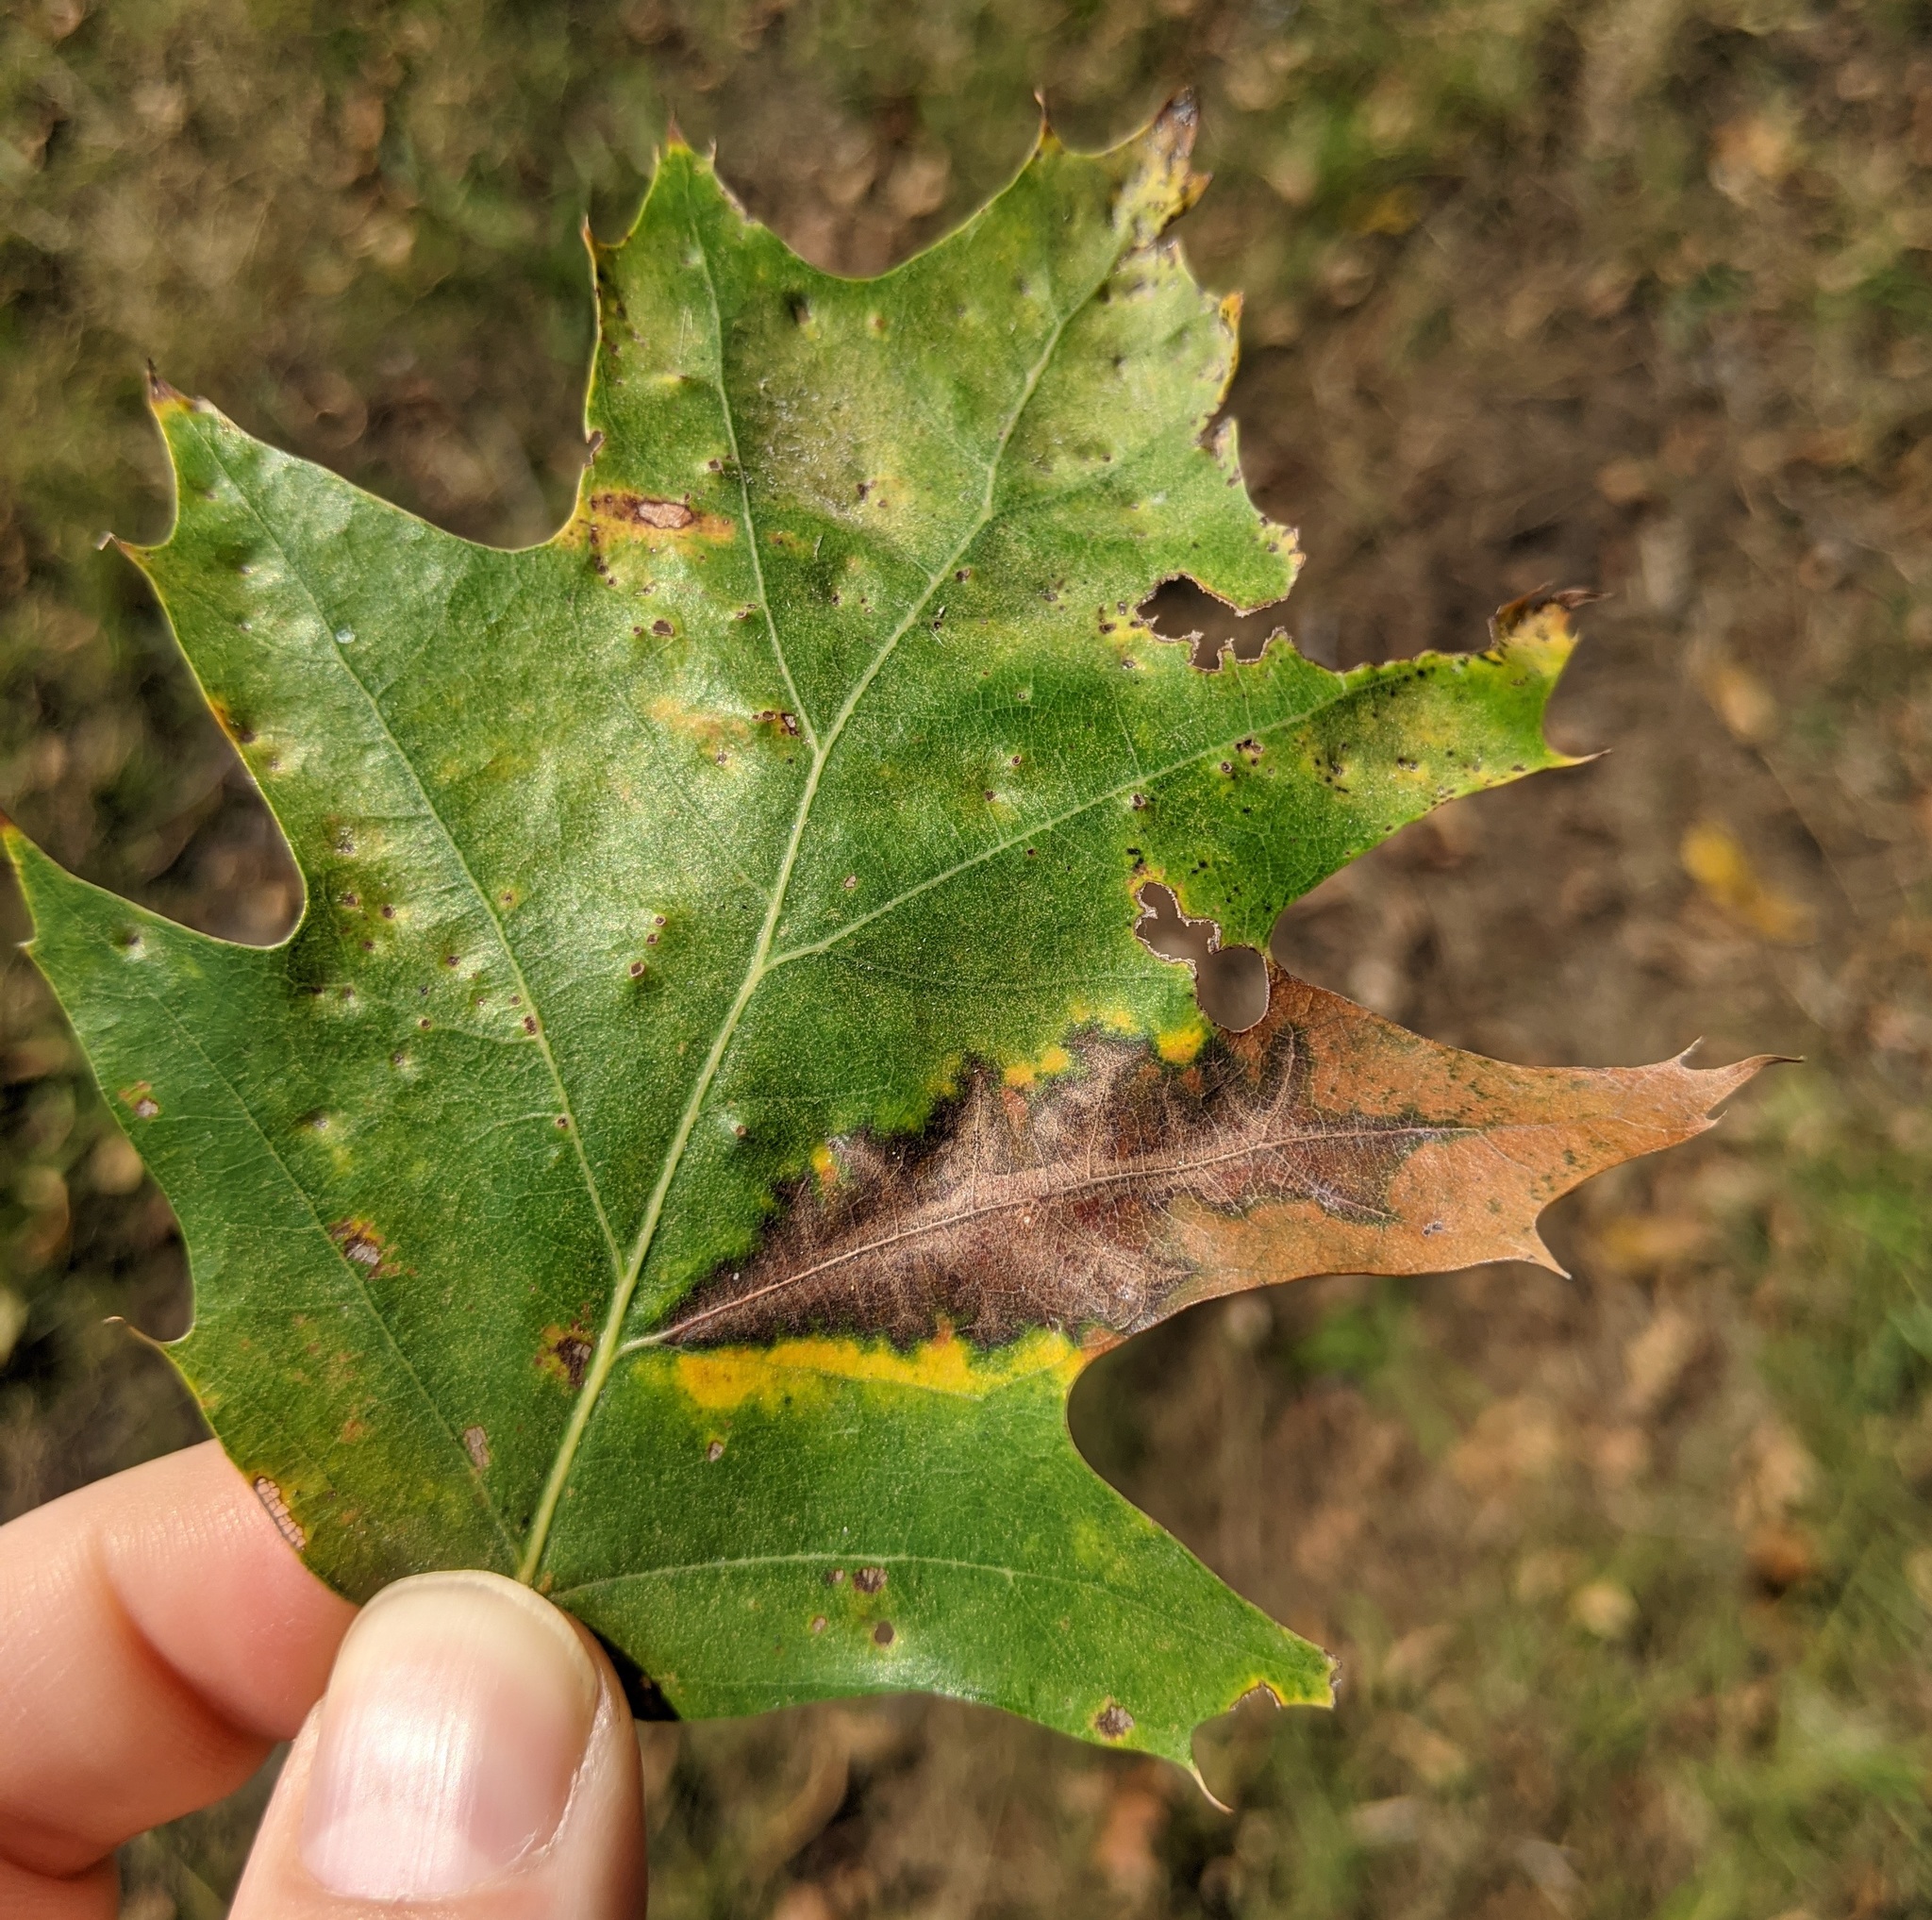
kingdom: Fungi
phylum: Ascomycota
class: Sordariomycetes
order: Diaporthales
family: Gnomoniaceae
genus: Apiognomonia
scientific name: Apiognomonia errabunda
